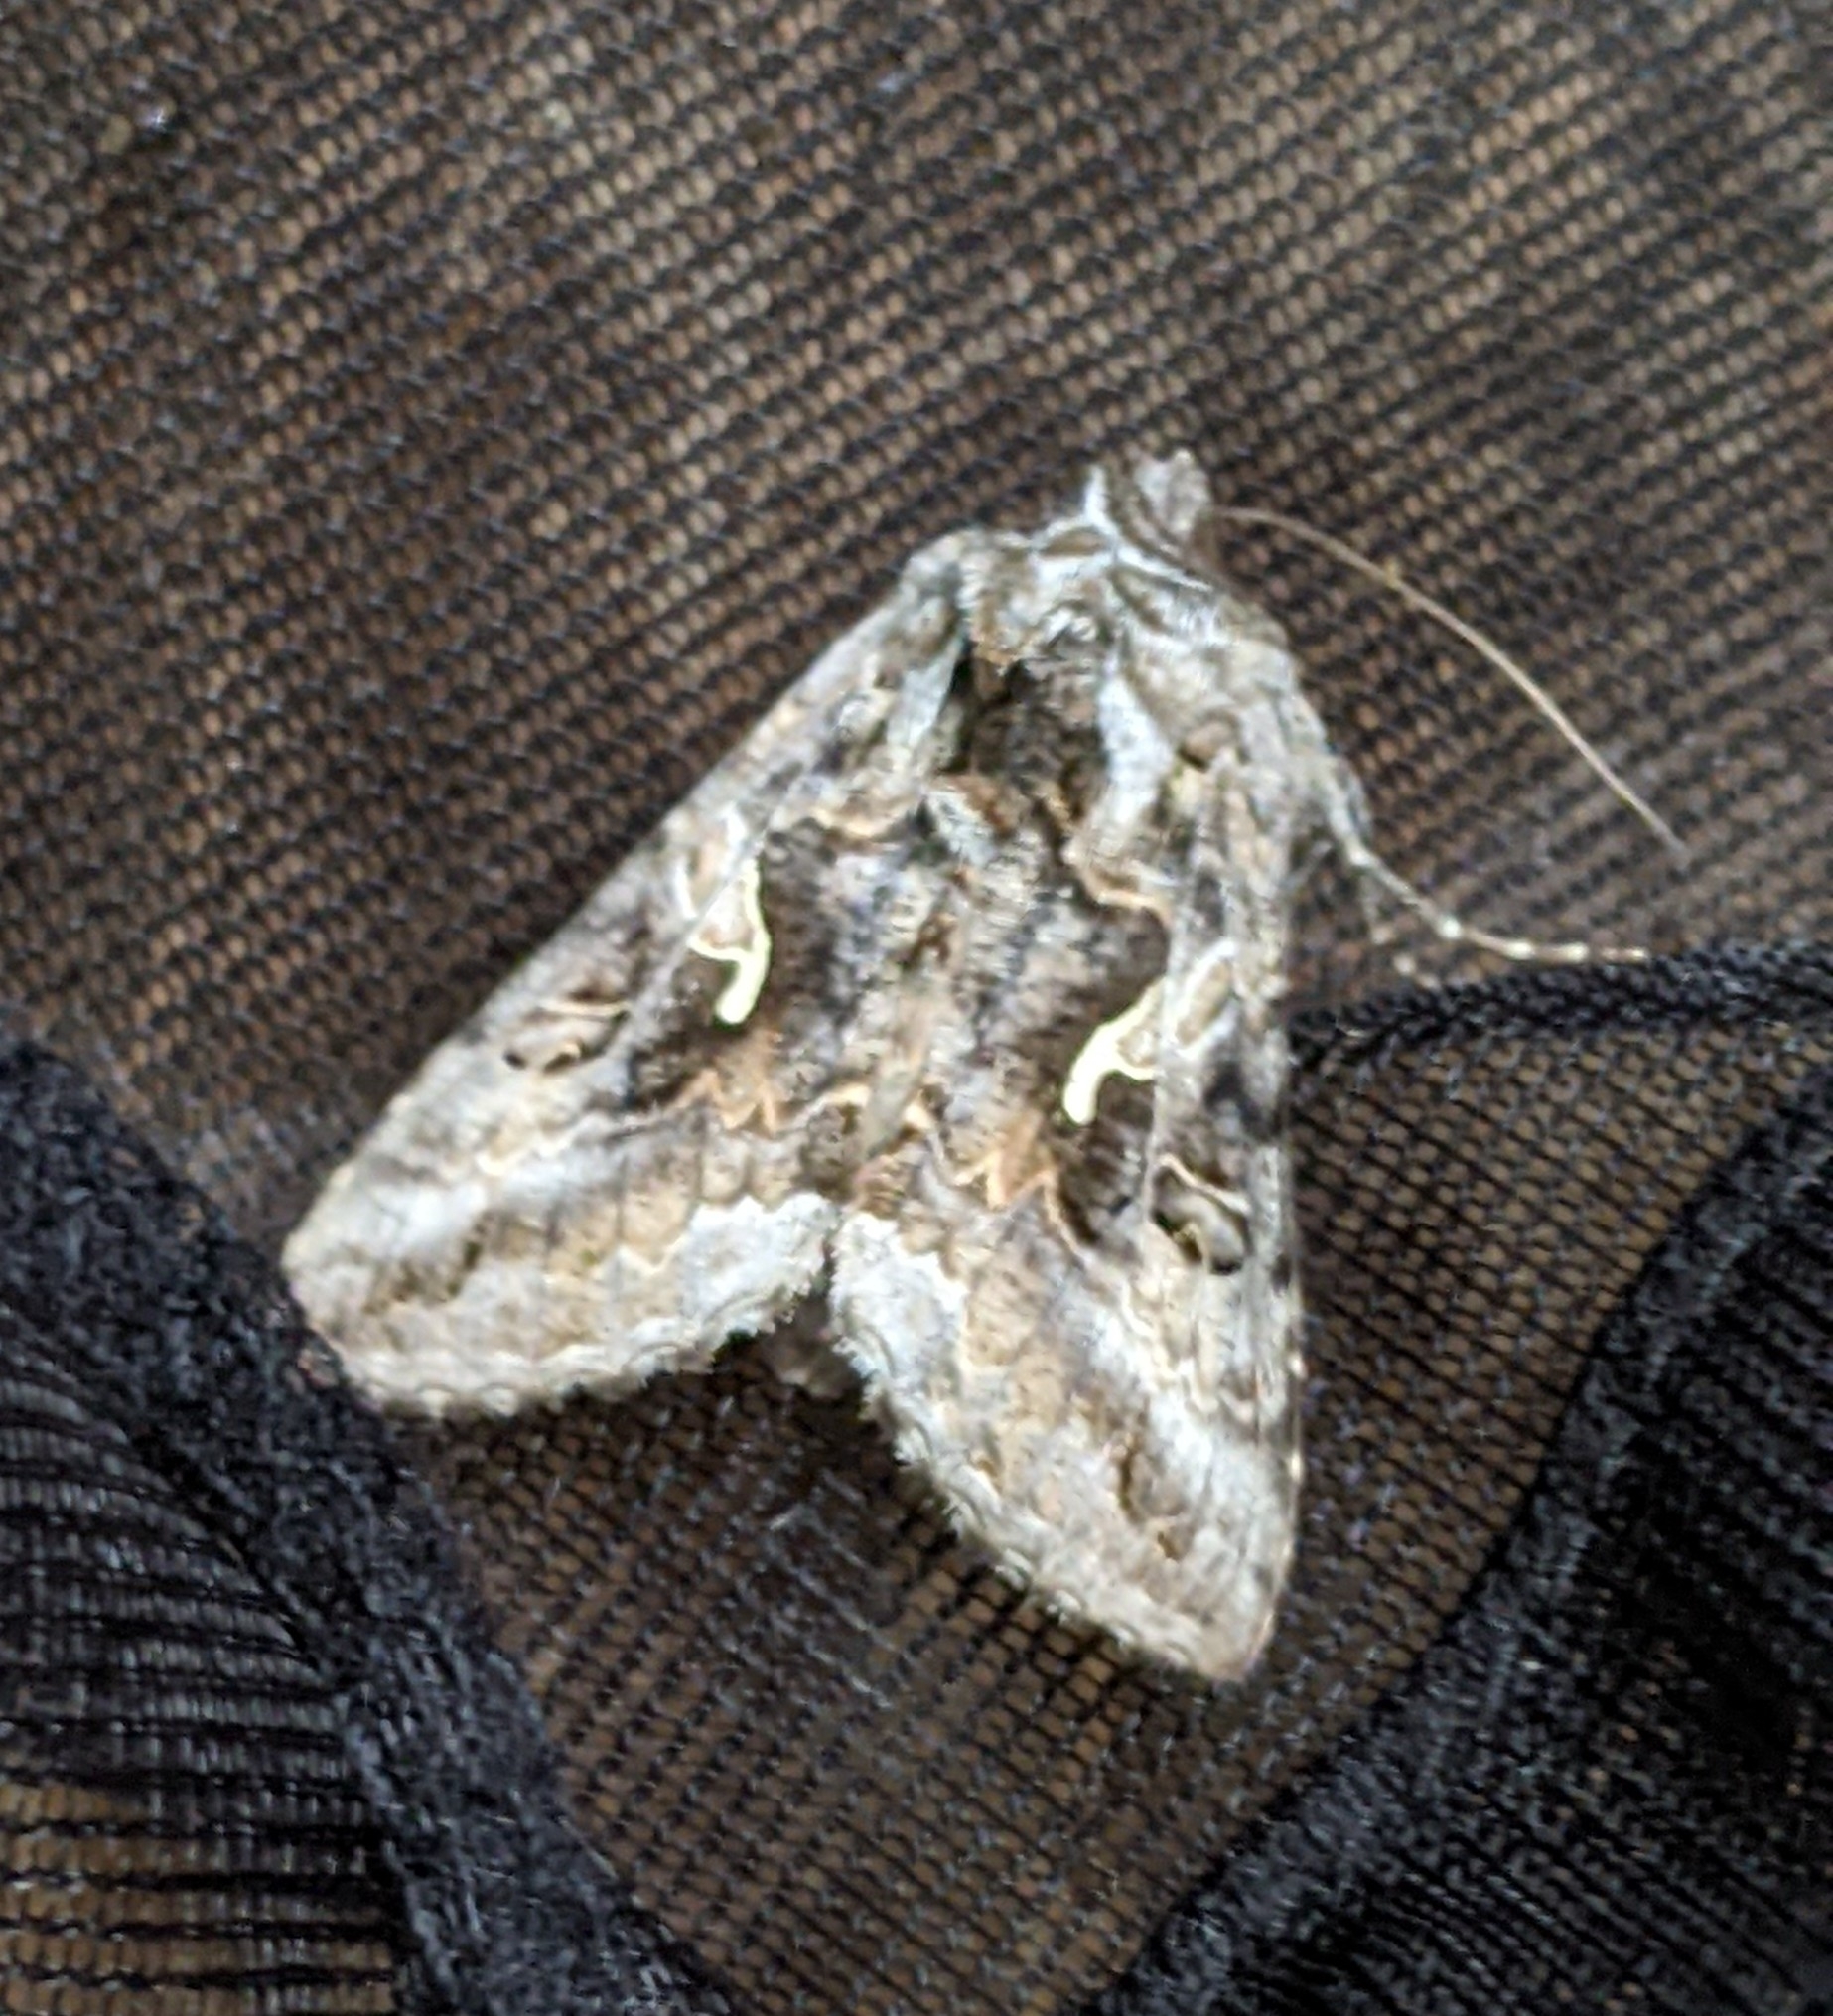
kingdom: Animalia
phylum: Arthropoda
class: Insecta
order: Lepidoptera
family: Noctuidae
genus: Autographa
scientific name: Autographa californica
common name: Alfalfa looper
